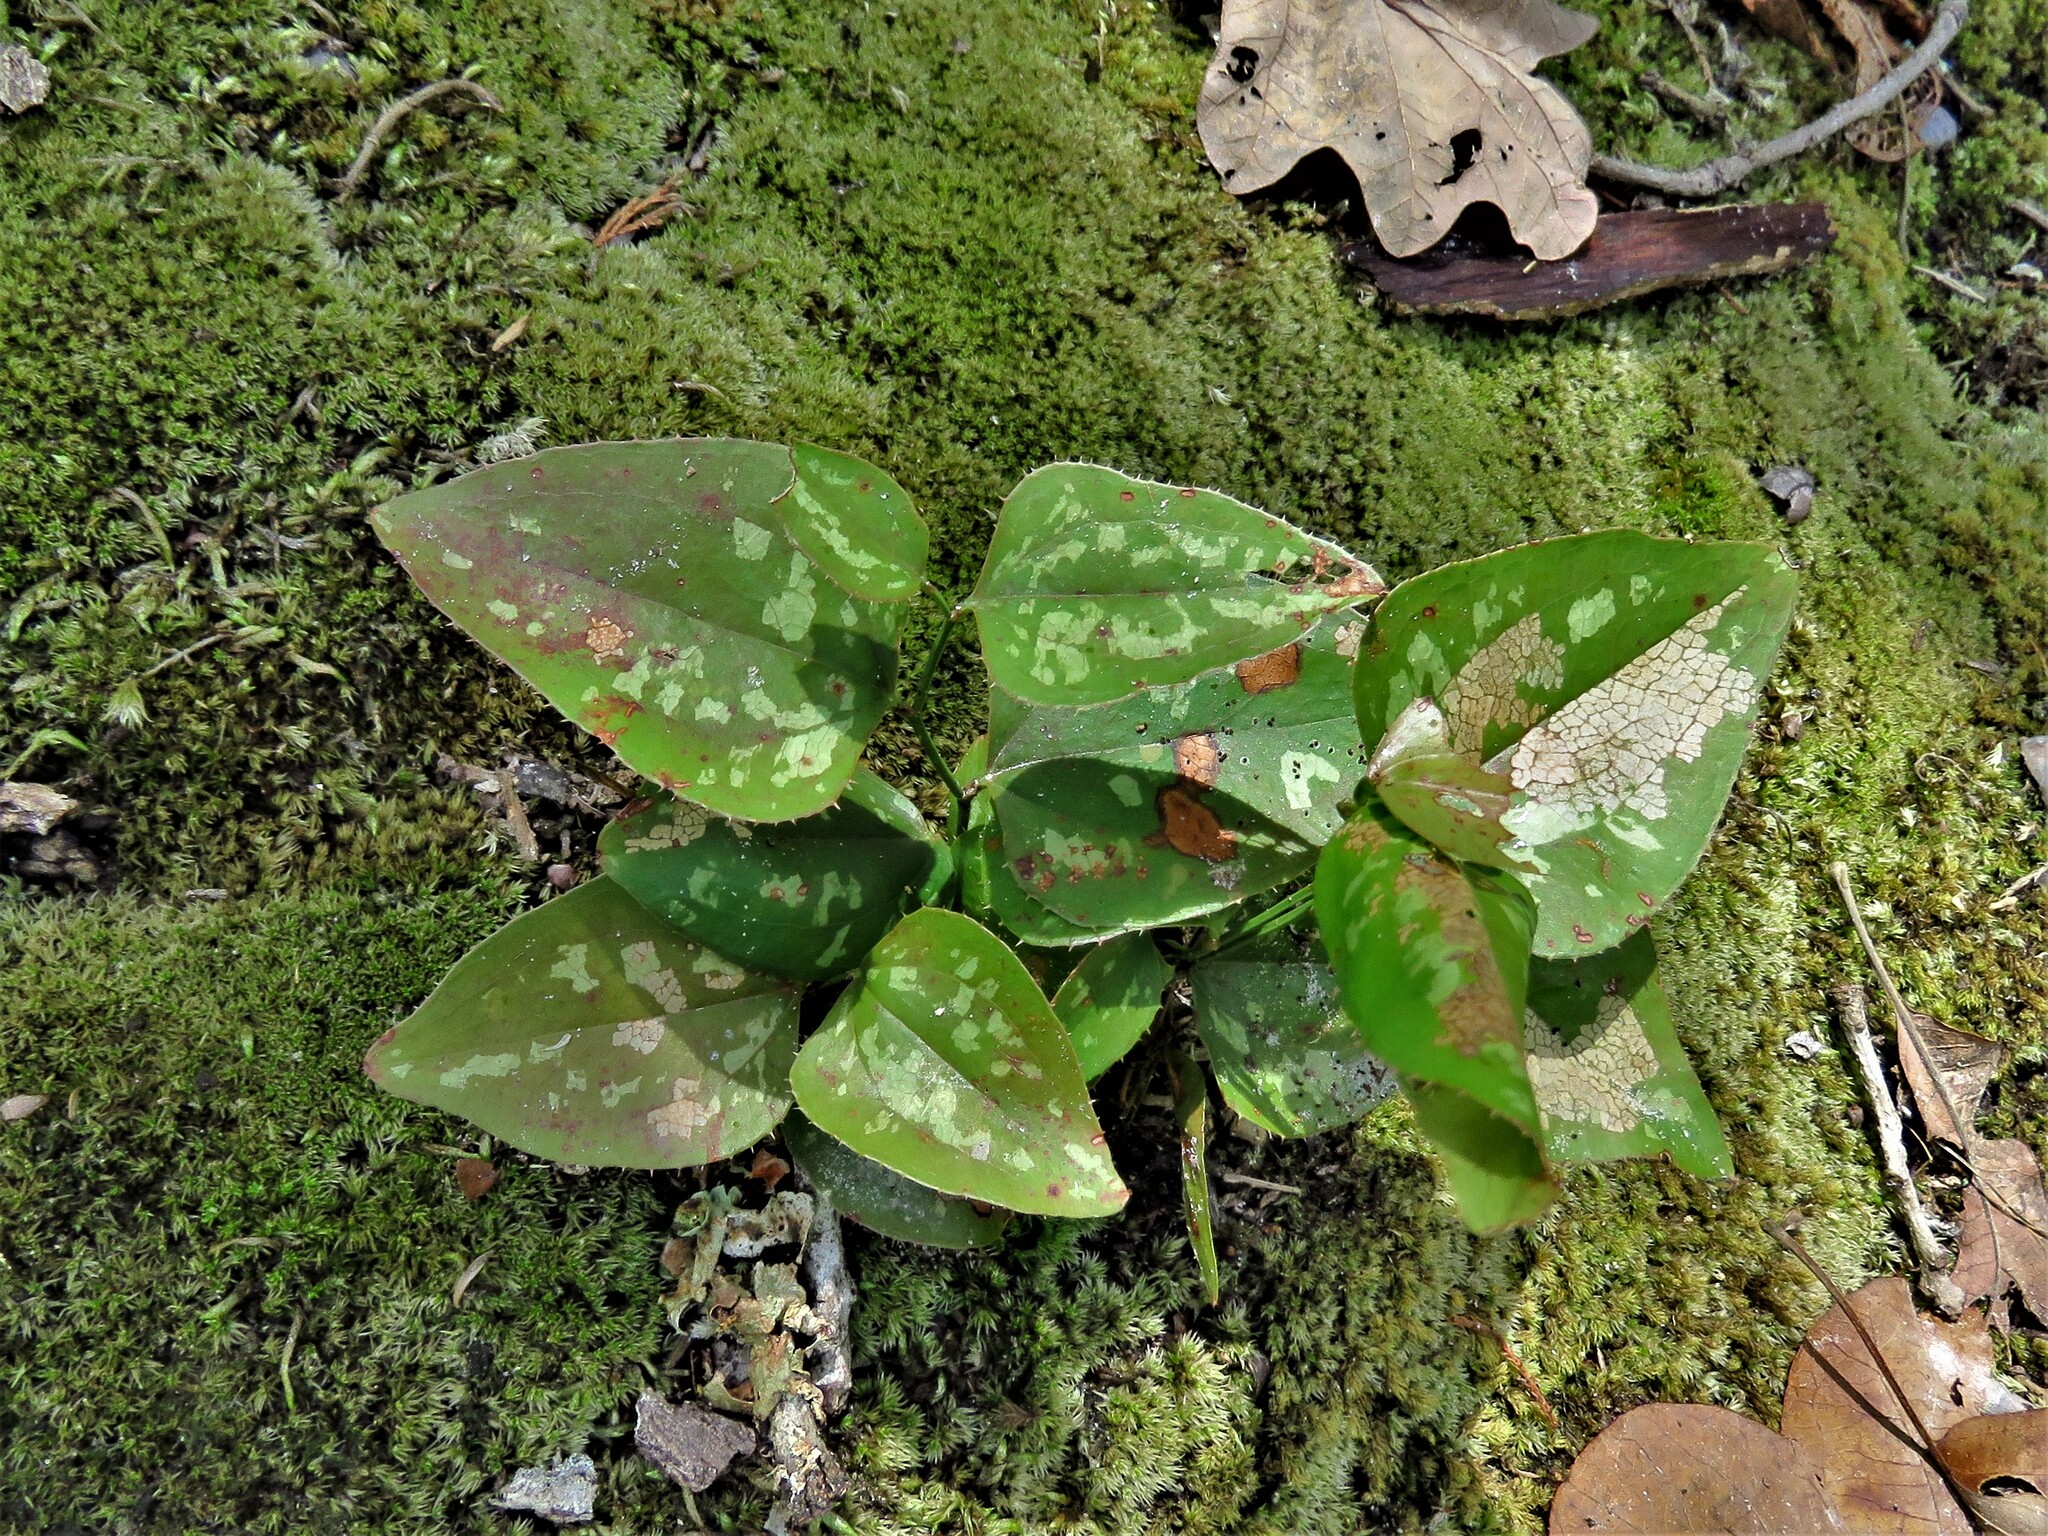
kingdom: Plantae
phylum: Tracheophyta
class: Liliopsida
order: Liliales
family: Smilacaceae
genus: Smilax
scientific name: Smilax bona-nox
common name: Catbrier
